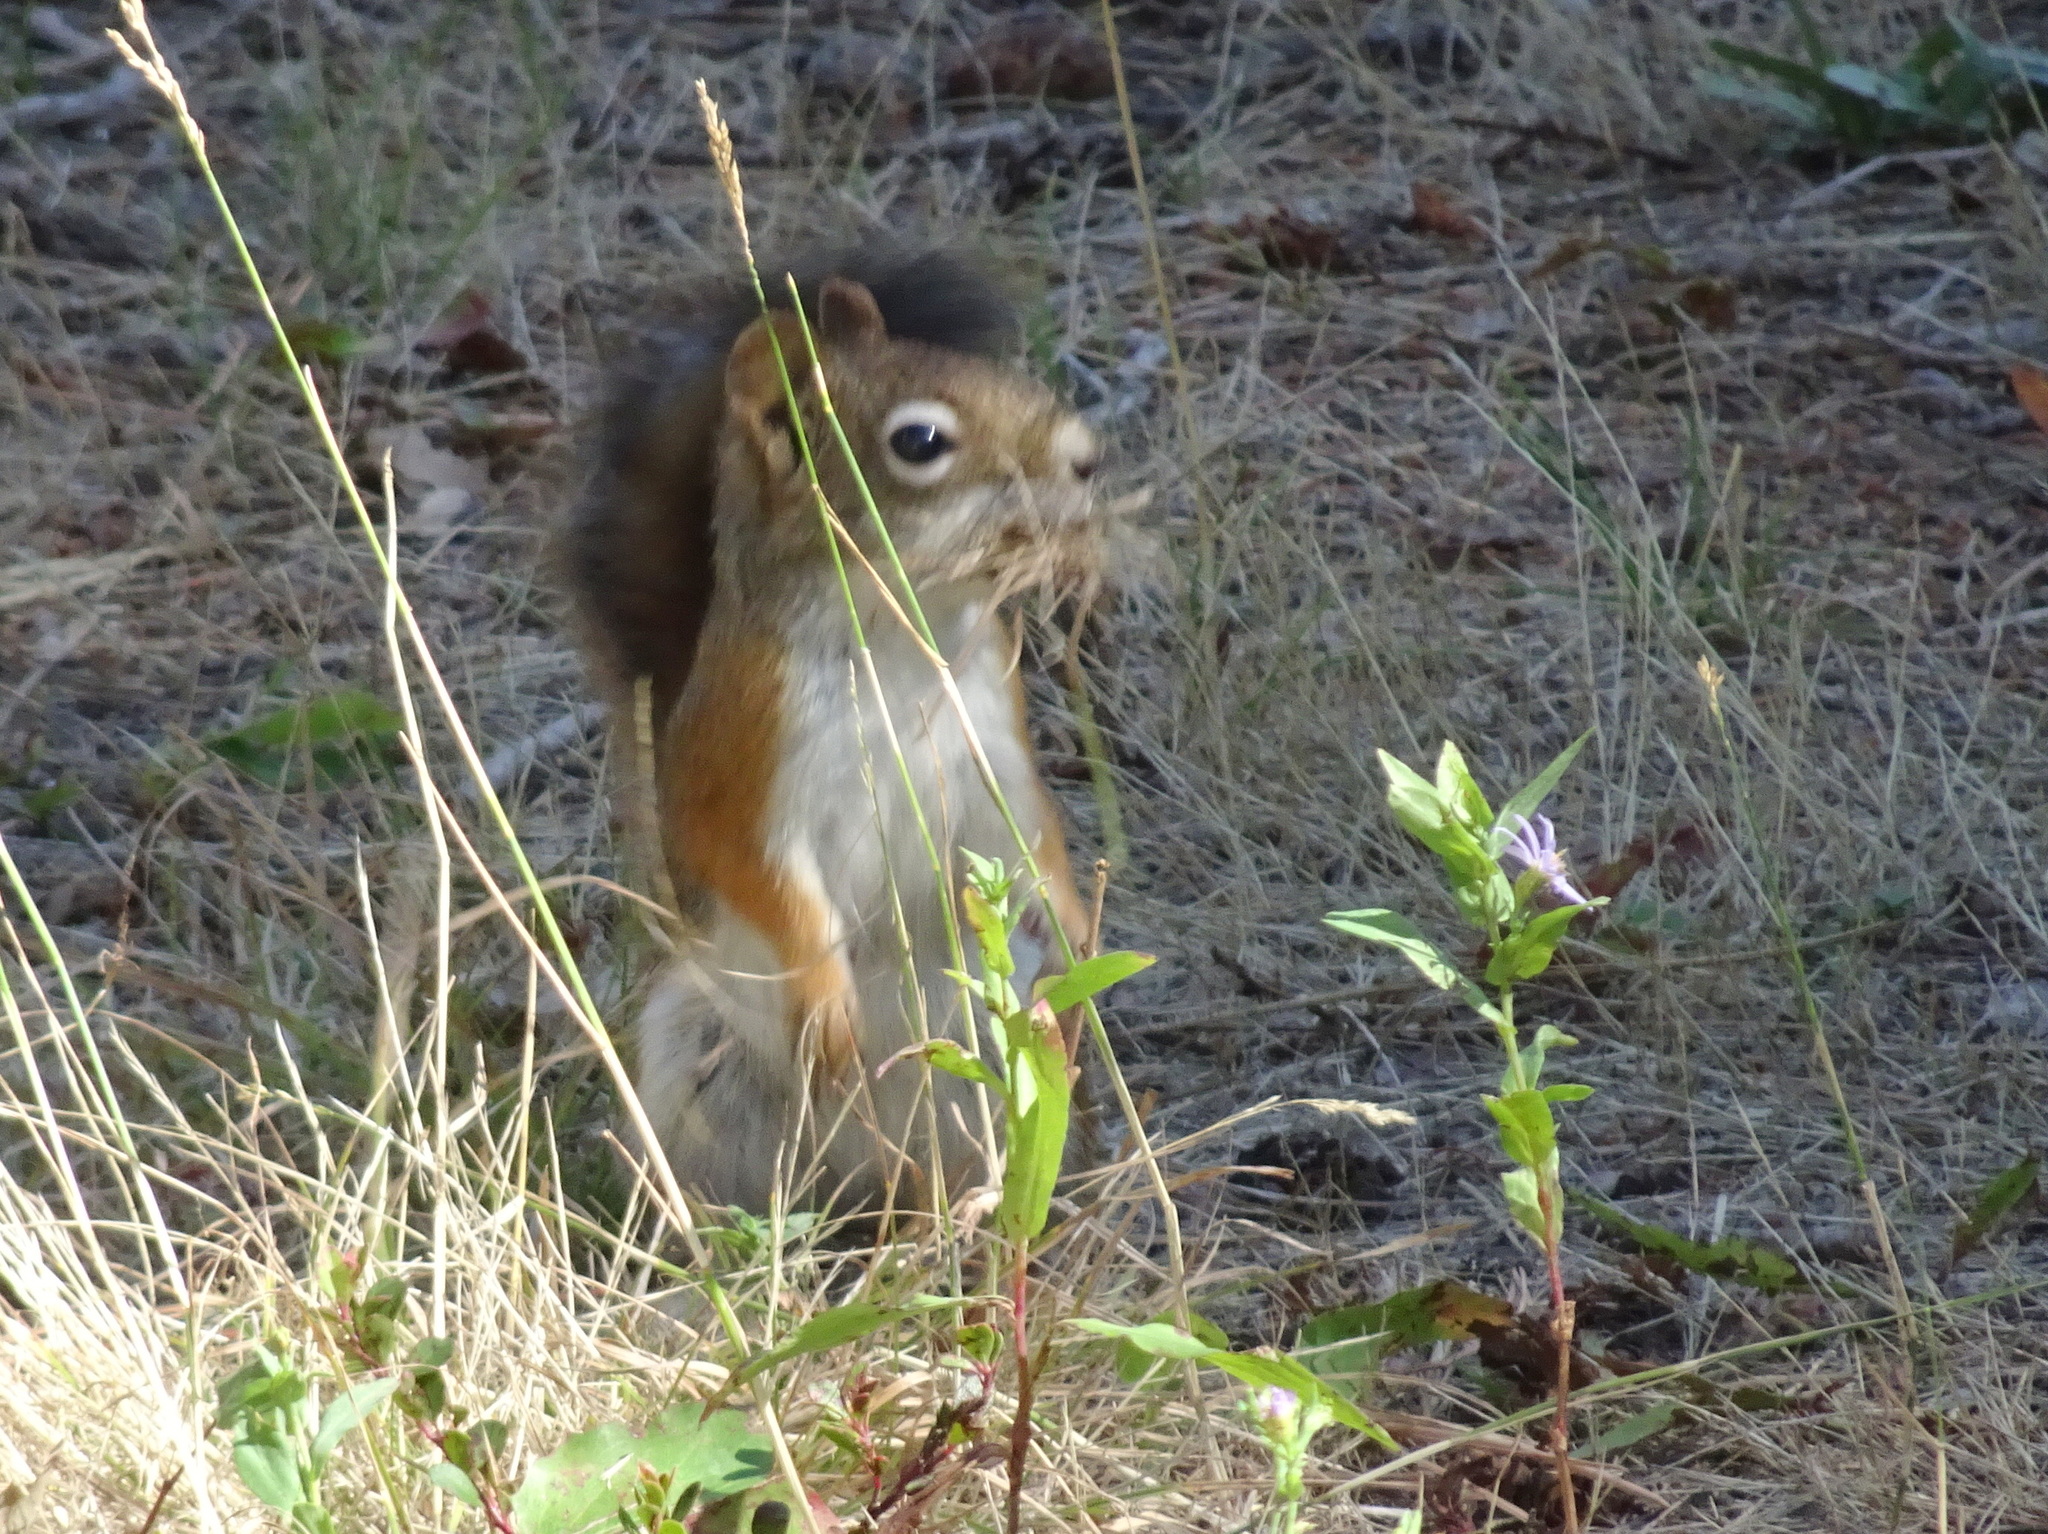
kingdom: Animalia
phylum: Chordata
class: Mammalia
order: Rodentia
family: Sciuridae
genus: Tamiasciurus
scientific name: Tamiasciurus hudsonicus
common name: Red squirrel
